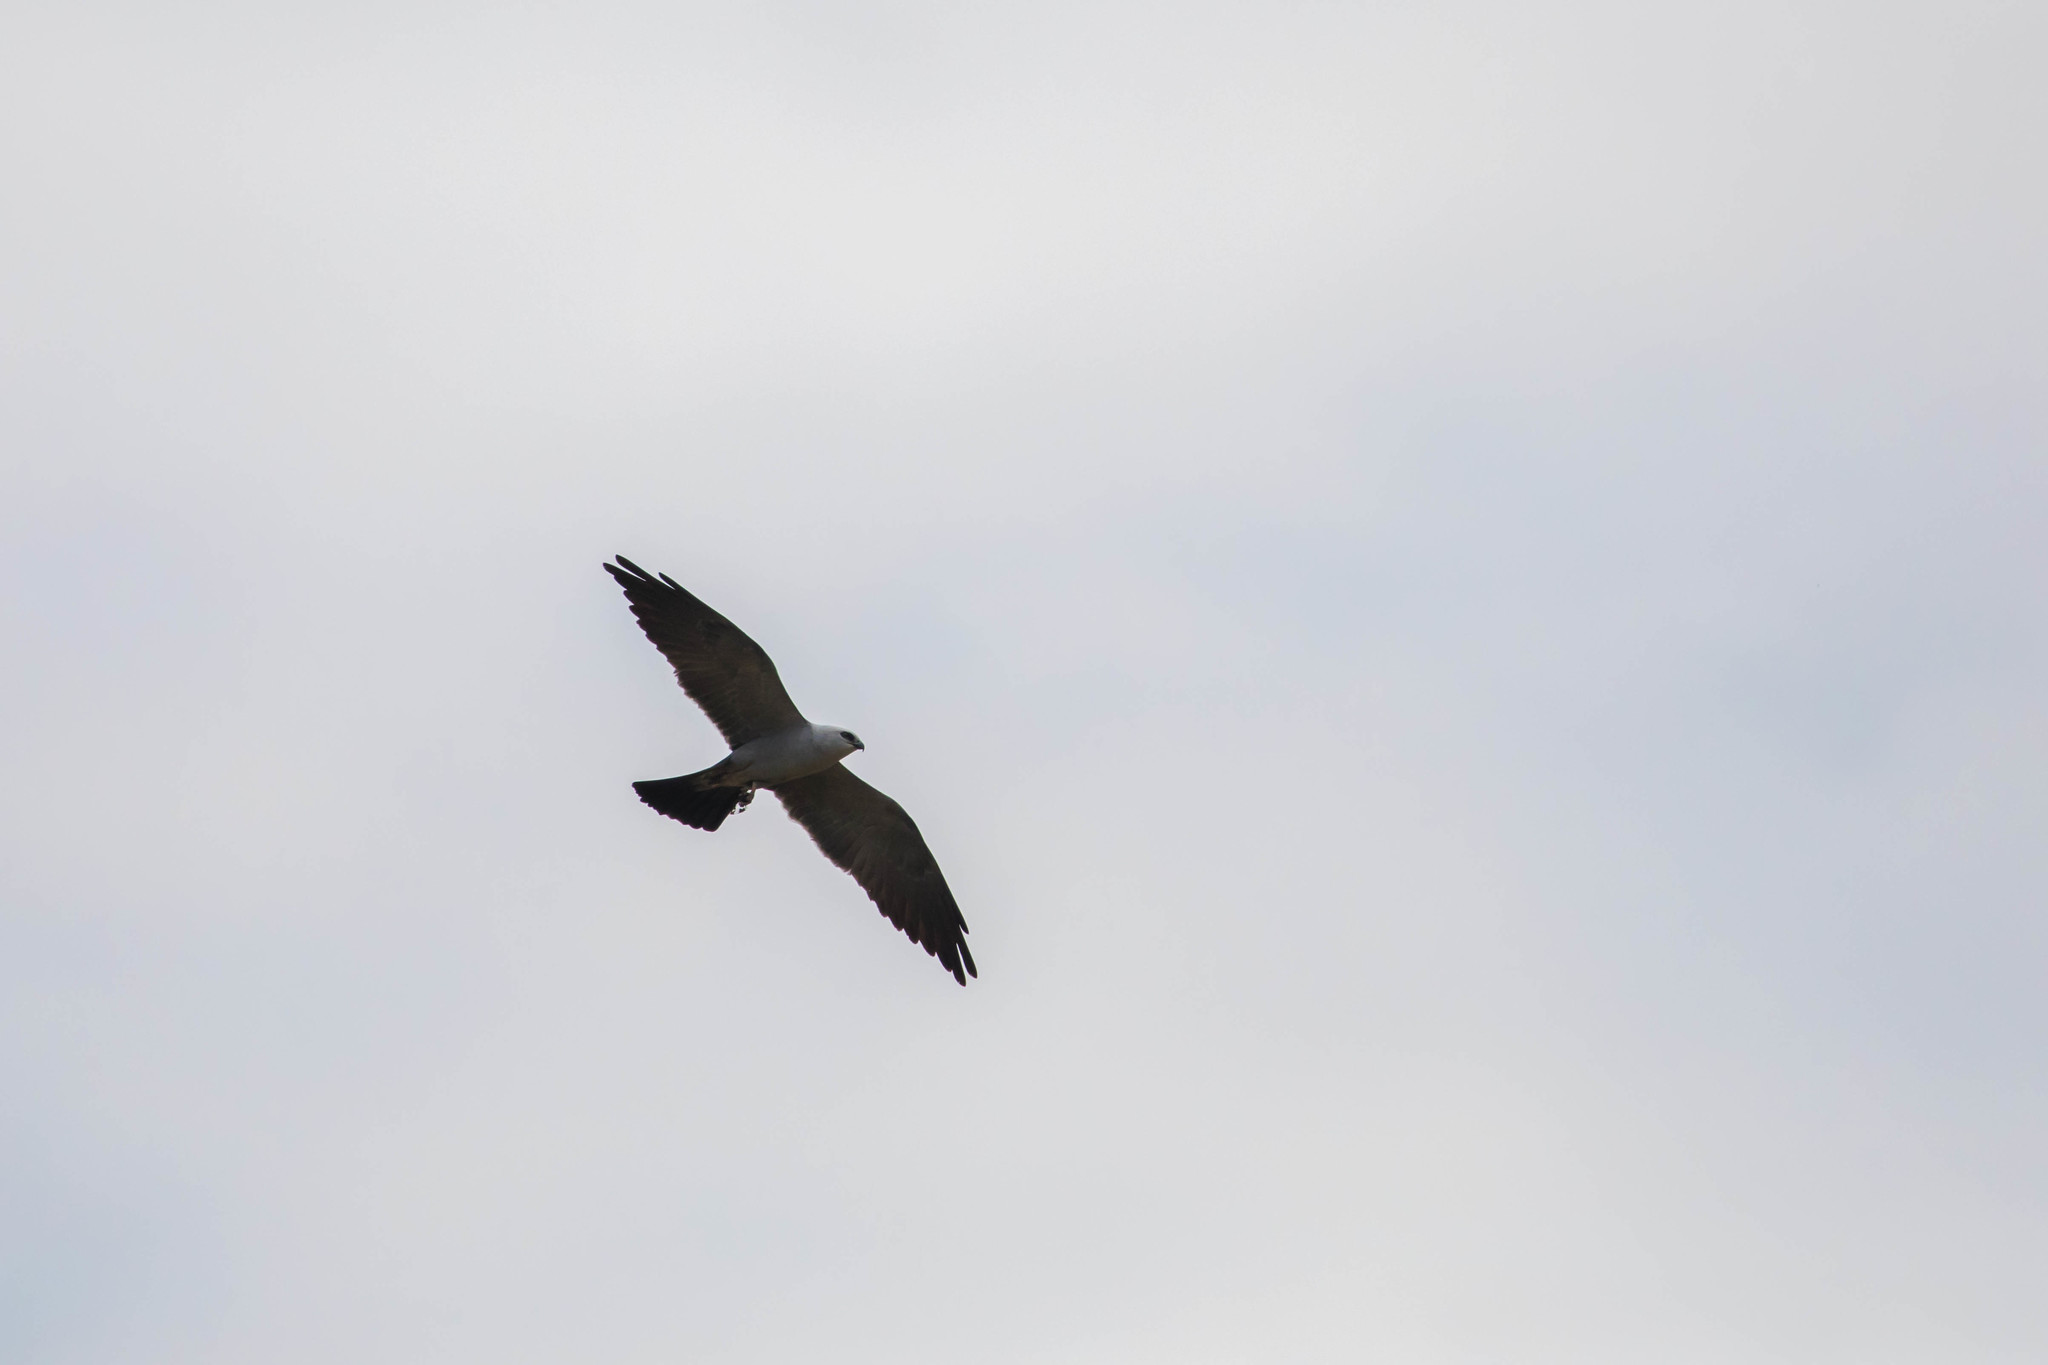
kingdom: Animalia
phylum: Chordata
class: Aves
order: Accipitriformes
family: Accipitridae
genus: Ictinia
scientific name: Ictinia mississippiensis
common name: Mississippi kite
